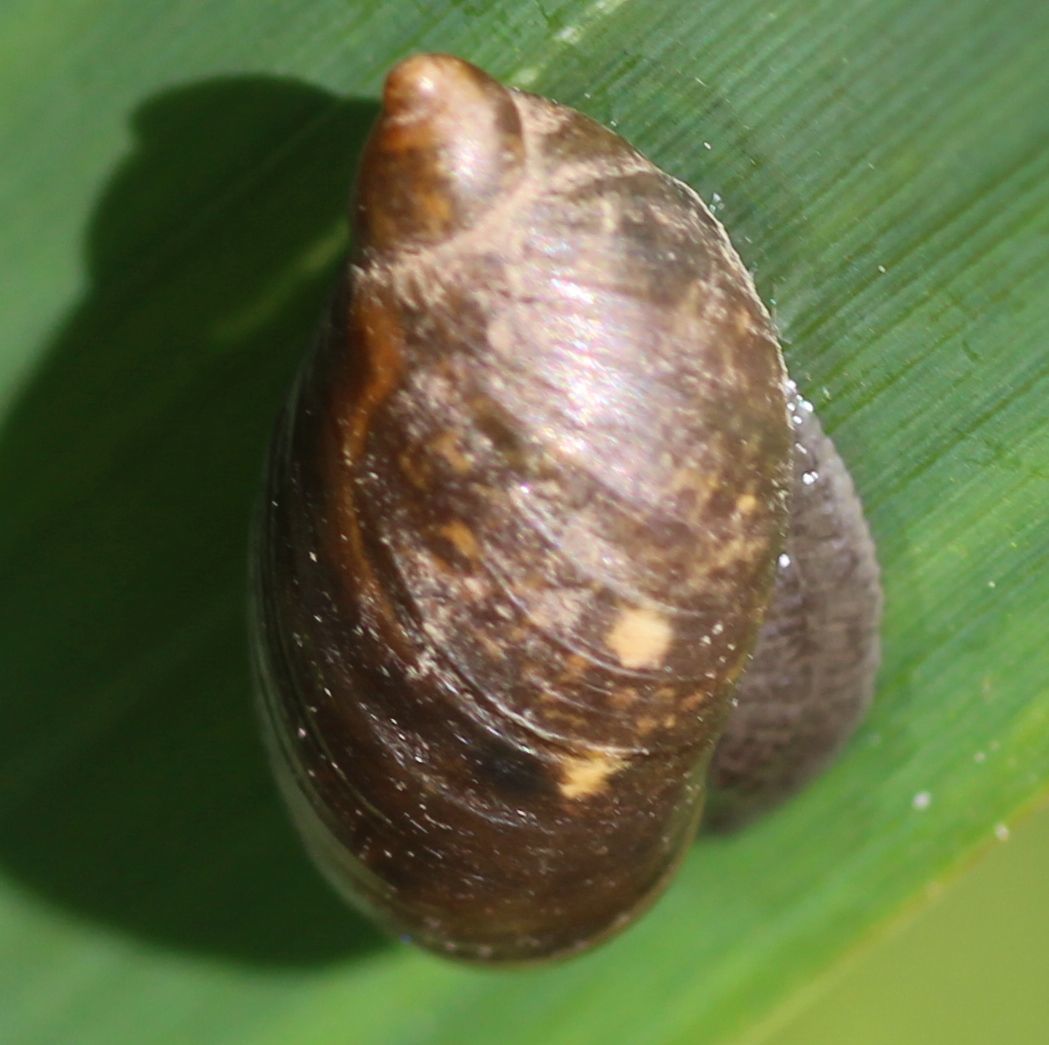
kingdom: Animalia
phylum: Mollusca
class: Gastropoda
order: Stylommatophora
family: Succineidae
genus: Succinea
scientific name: Succinea putris
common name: European ambersnail
